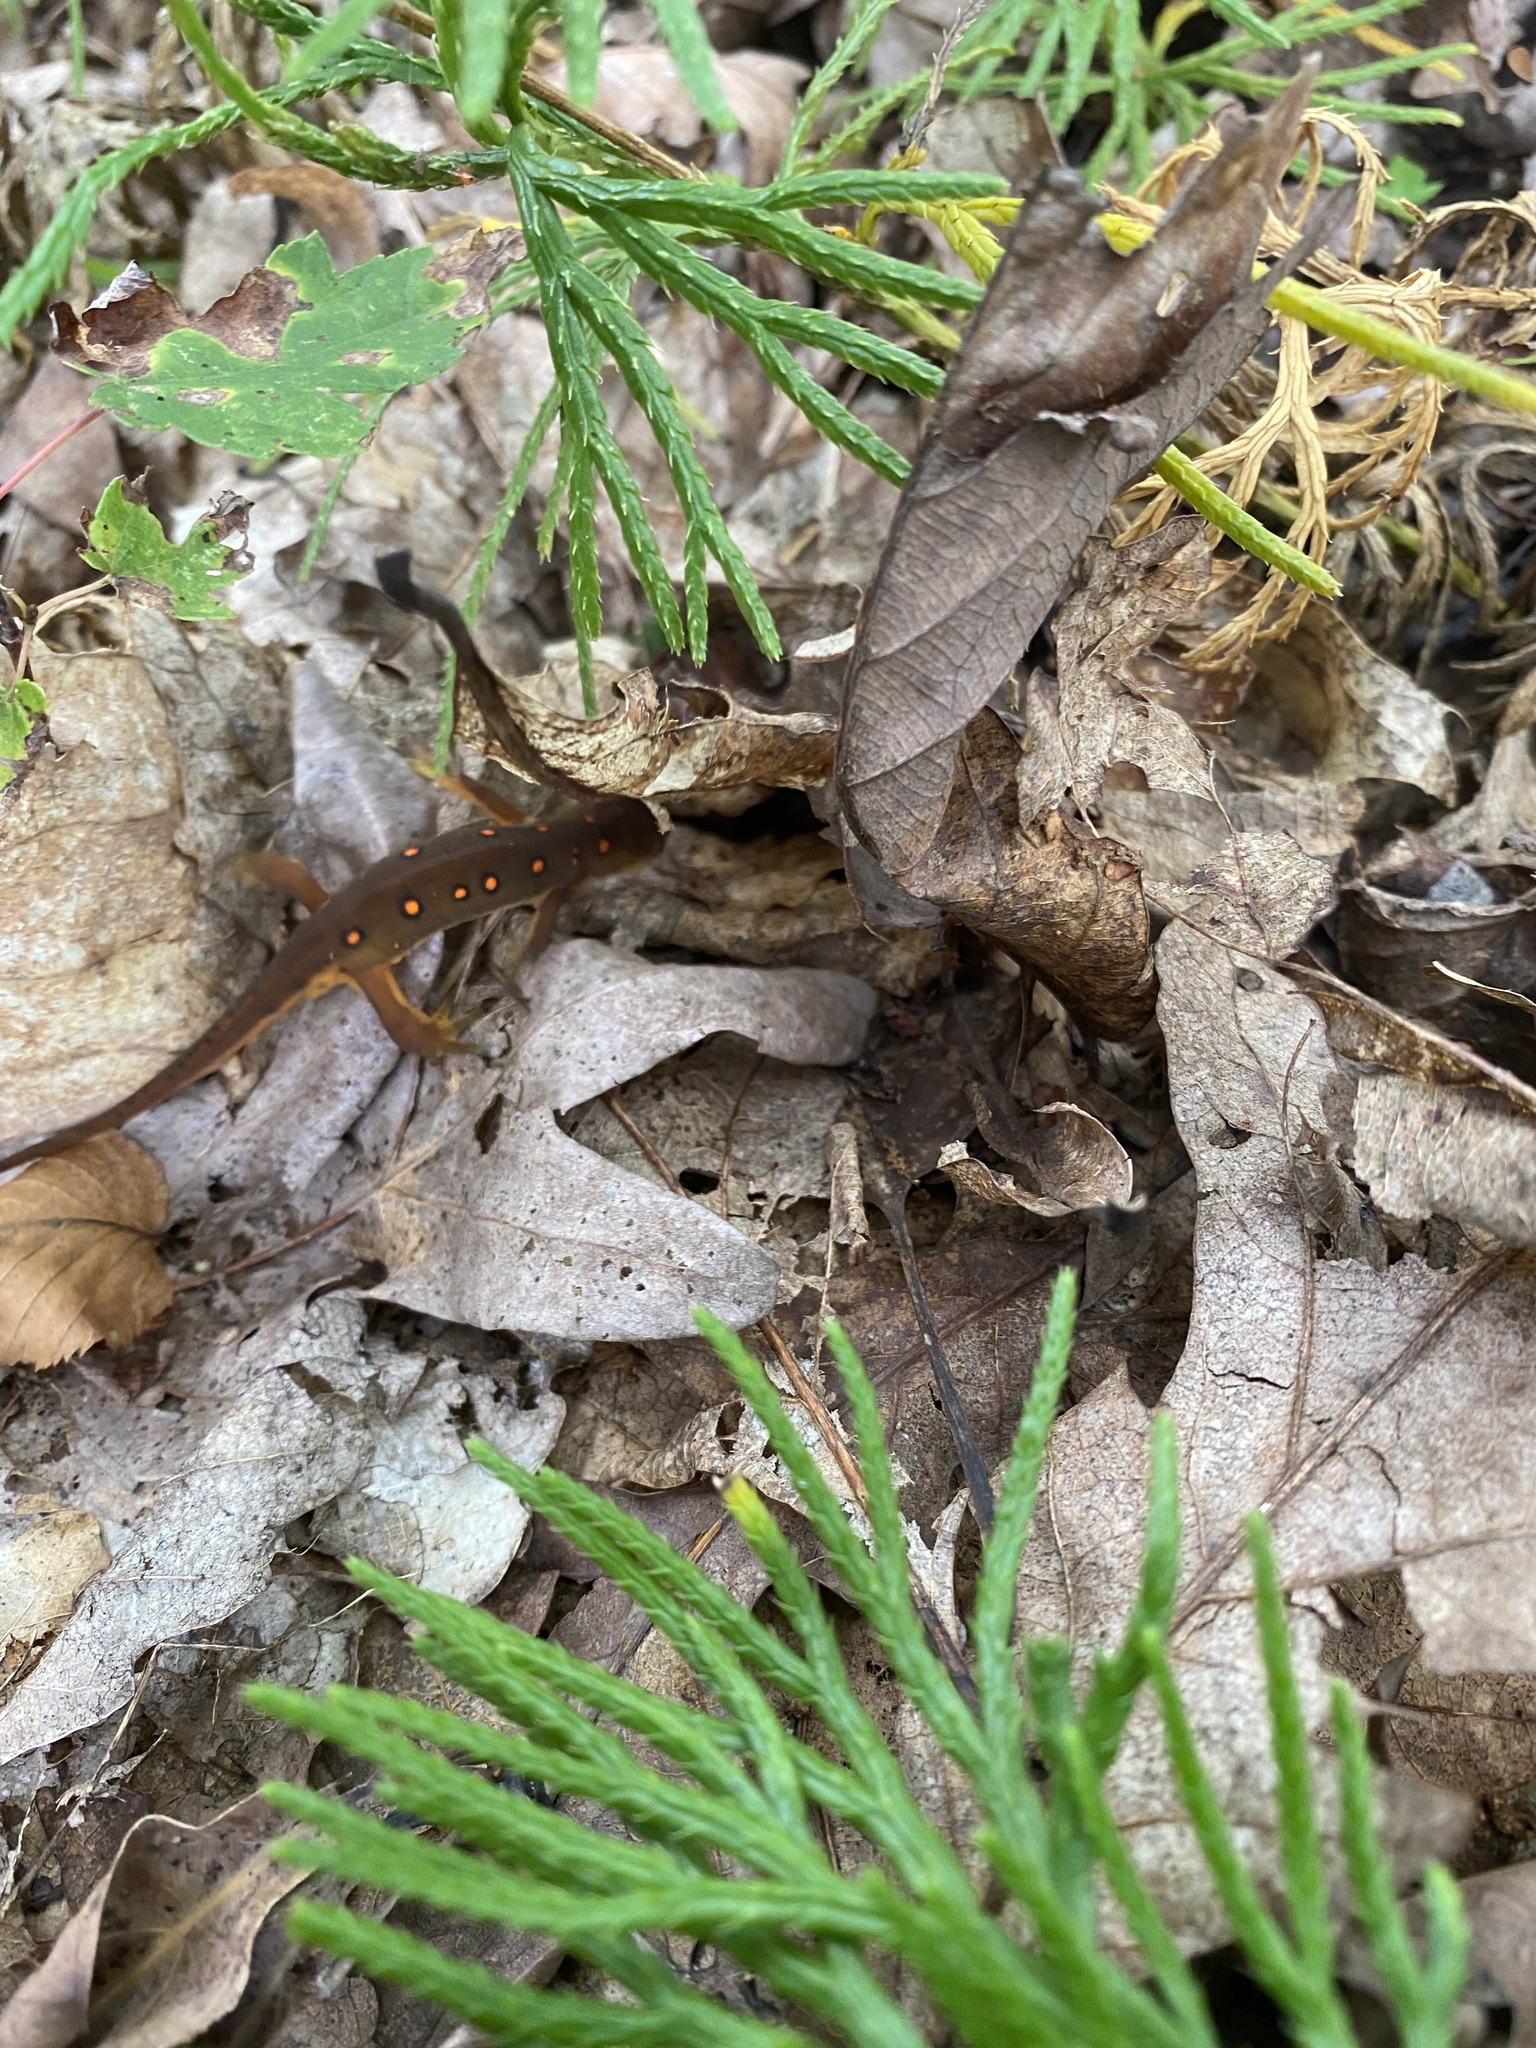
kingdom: Animalia
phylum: Chordata
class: Amphibia
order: Caudata
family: Salamandridae
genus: Notophthalmus
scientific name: Notophthalmus viridescens
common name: Eastern newt
